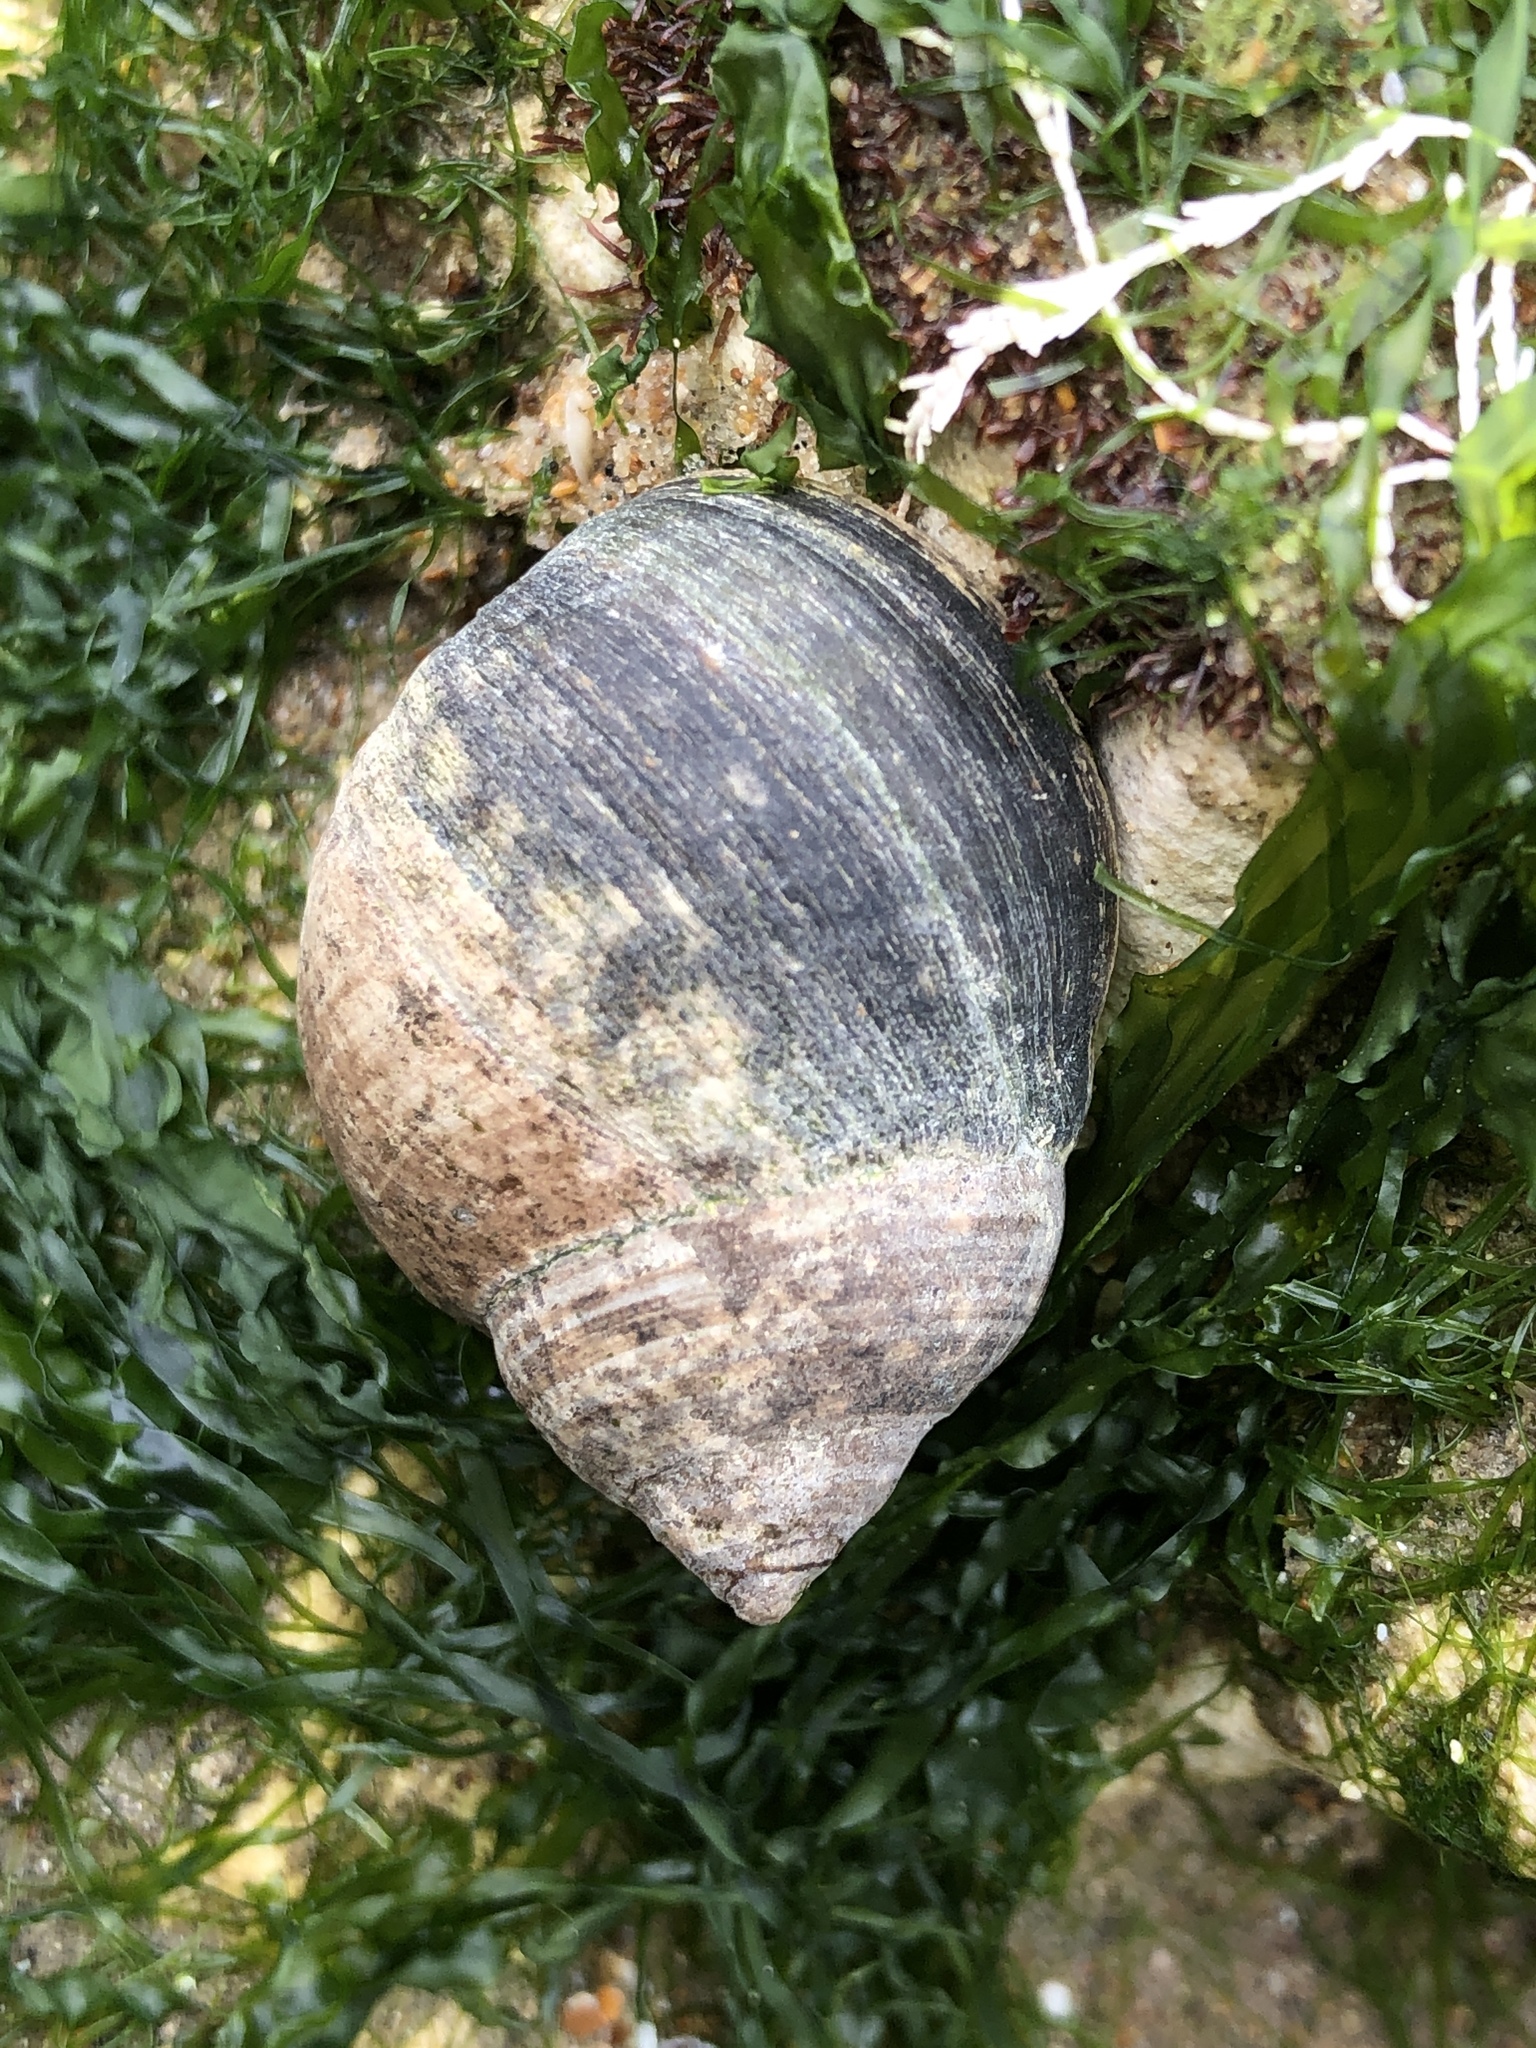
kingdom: Animalia
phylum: Mollusca
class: Gastropoda
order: Littorinimorpha
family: Littorinidae
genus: Littorina
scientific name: Littorina littorea
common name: Common periwinkle
